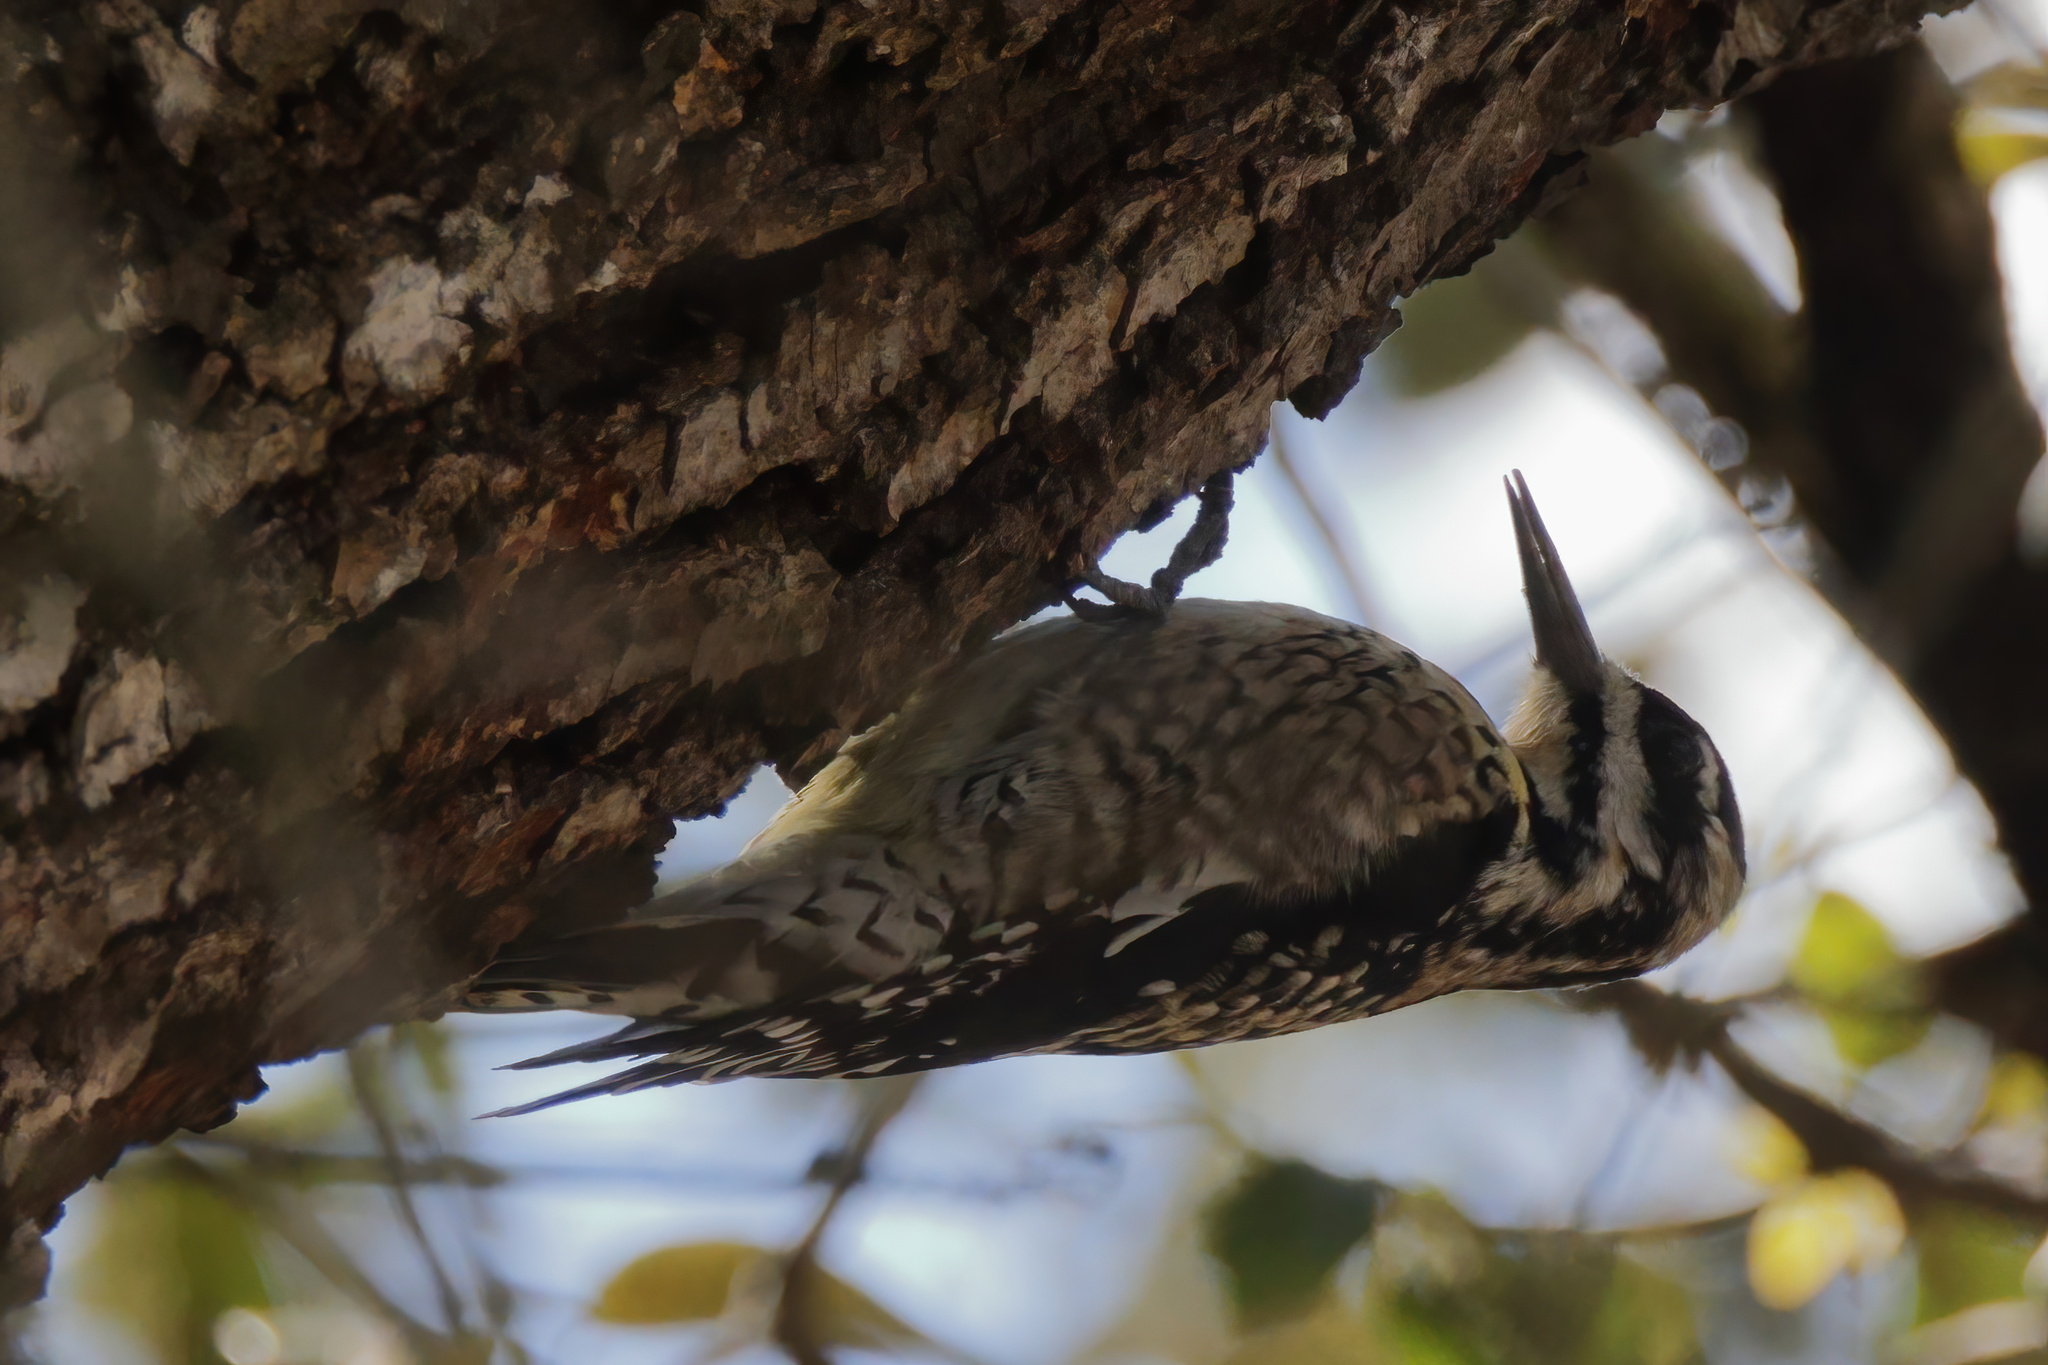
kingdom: Animalia
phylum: Chordata
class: Aves
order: Piciformes
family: Picidae
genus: Sphyrapicus
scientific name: Sphyrapicus varius
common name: Yellow-bellied sapsucker
